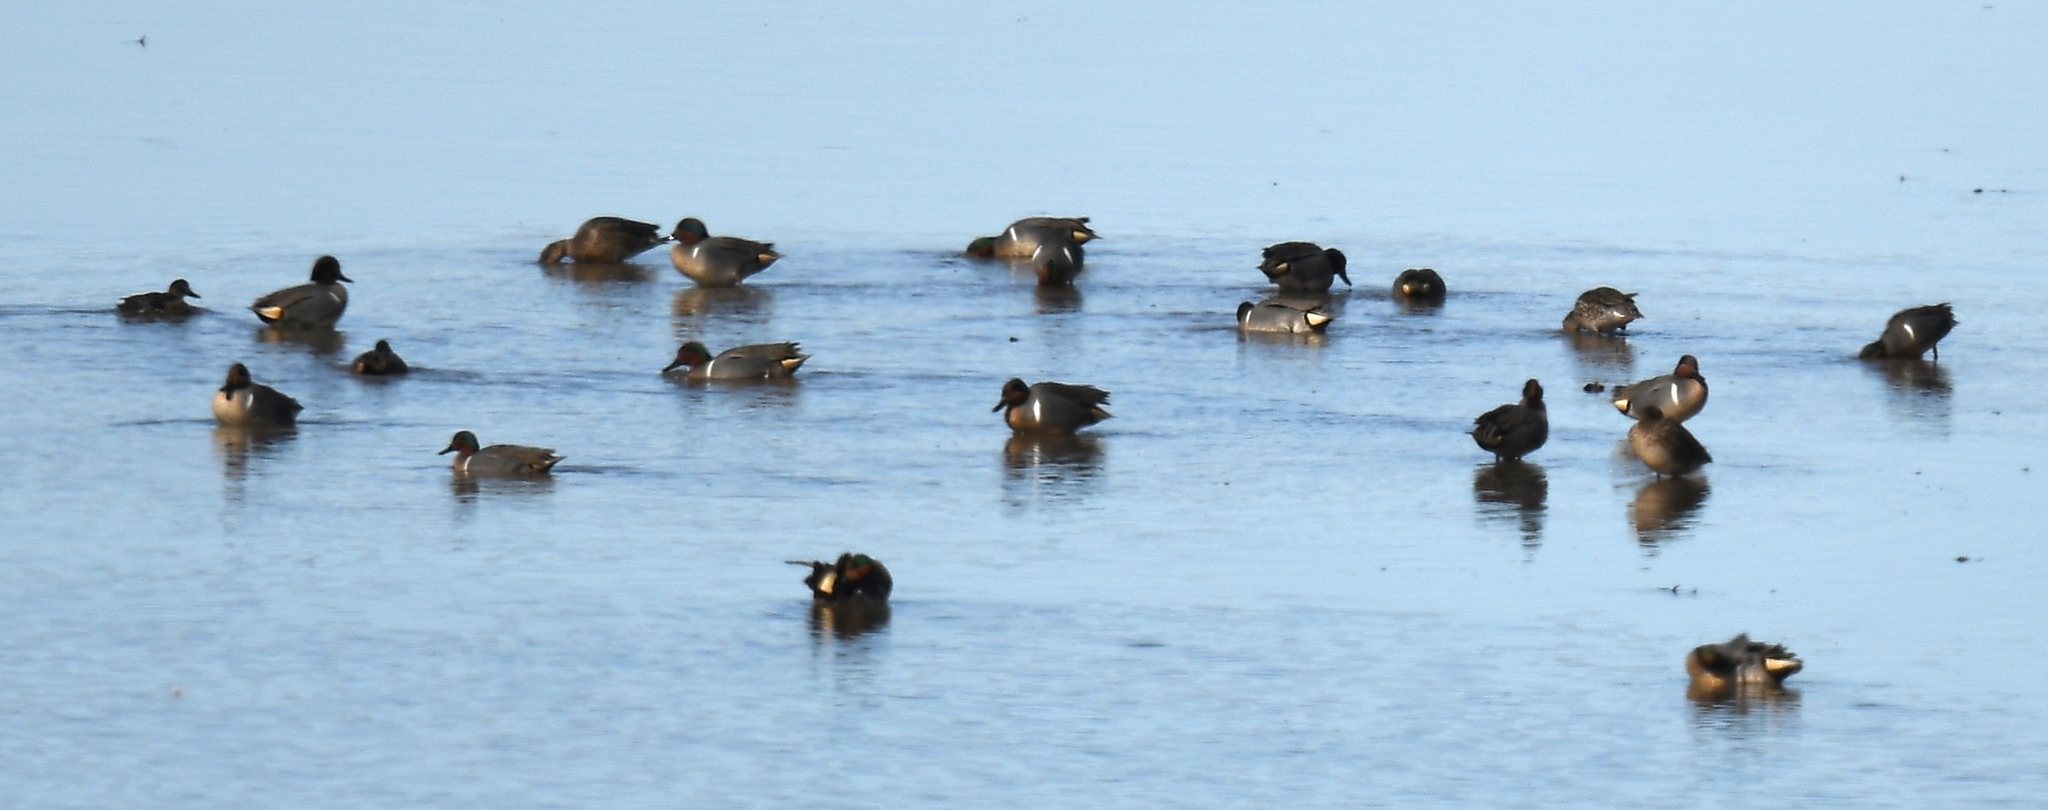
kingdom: Animalia
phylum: Chordata
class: Aves
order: Anseriformes
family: Anatidae
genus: Anas
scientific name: Anas crecca
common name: Eurasian teal
